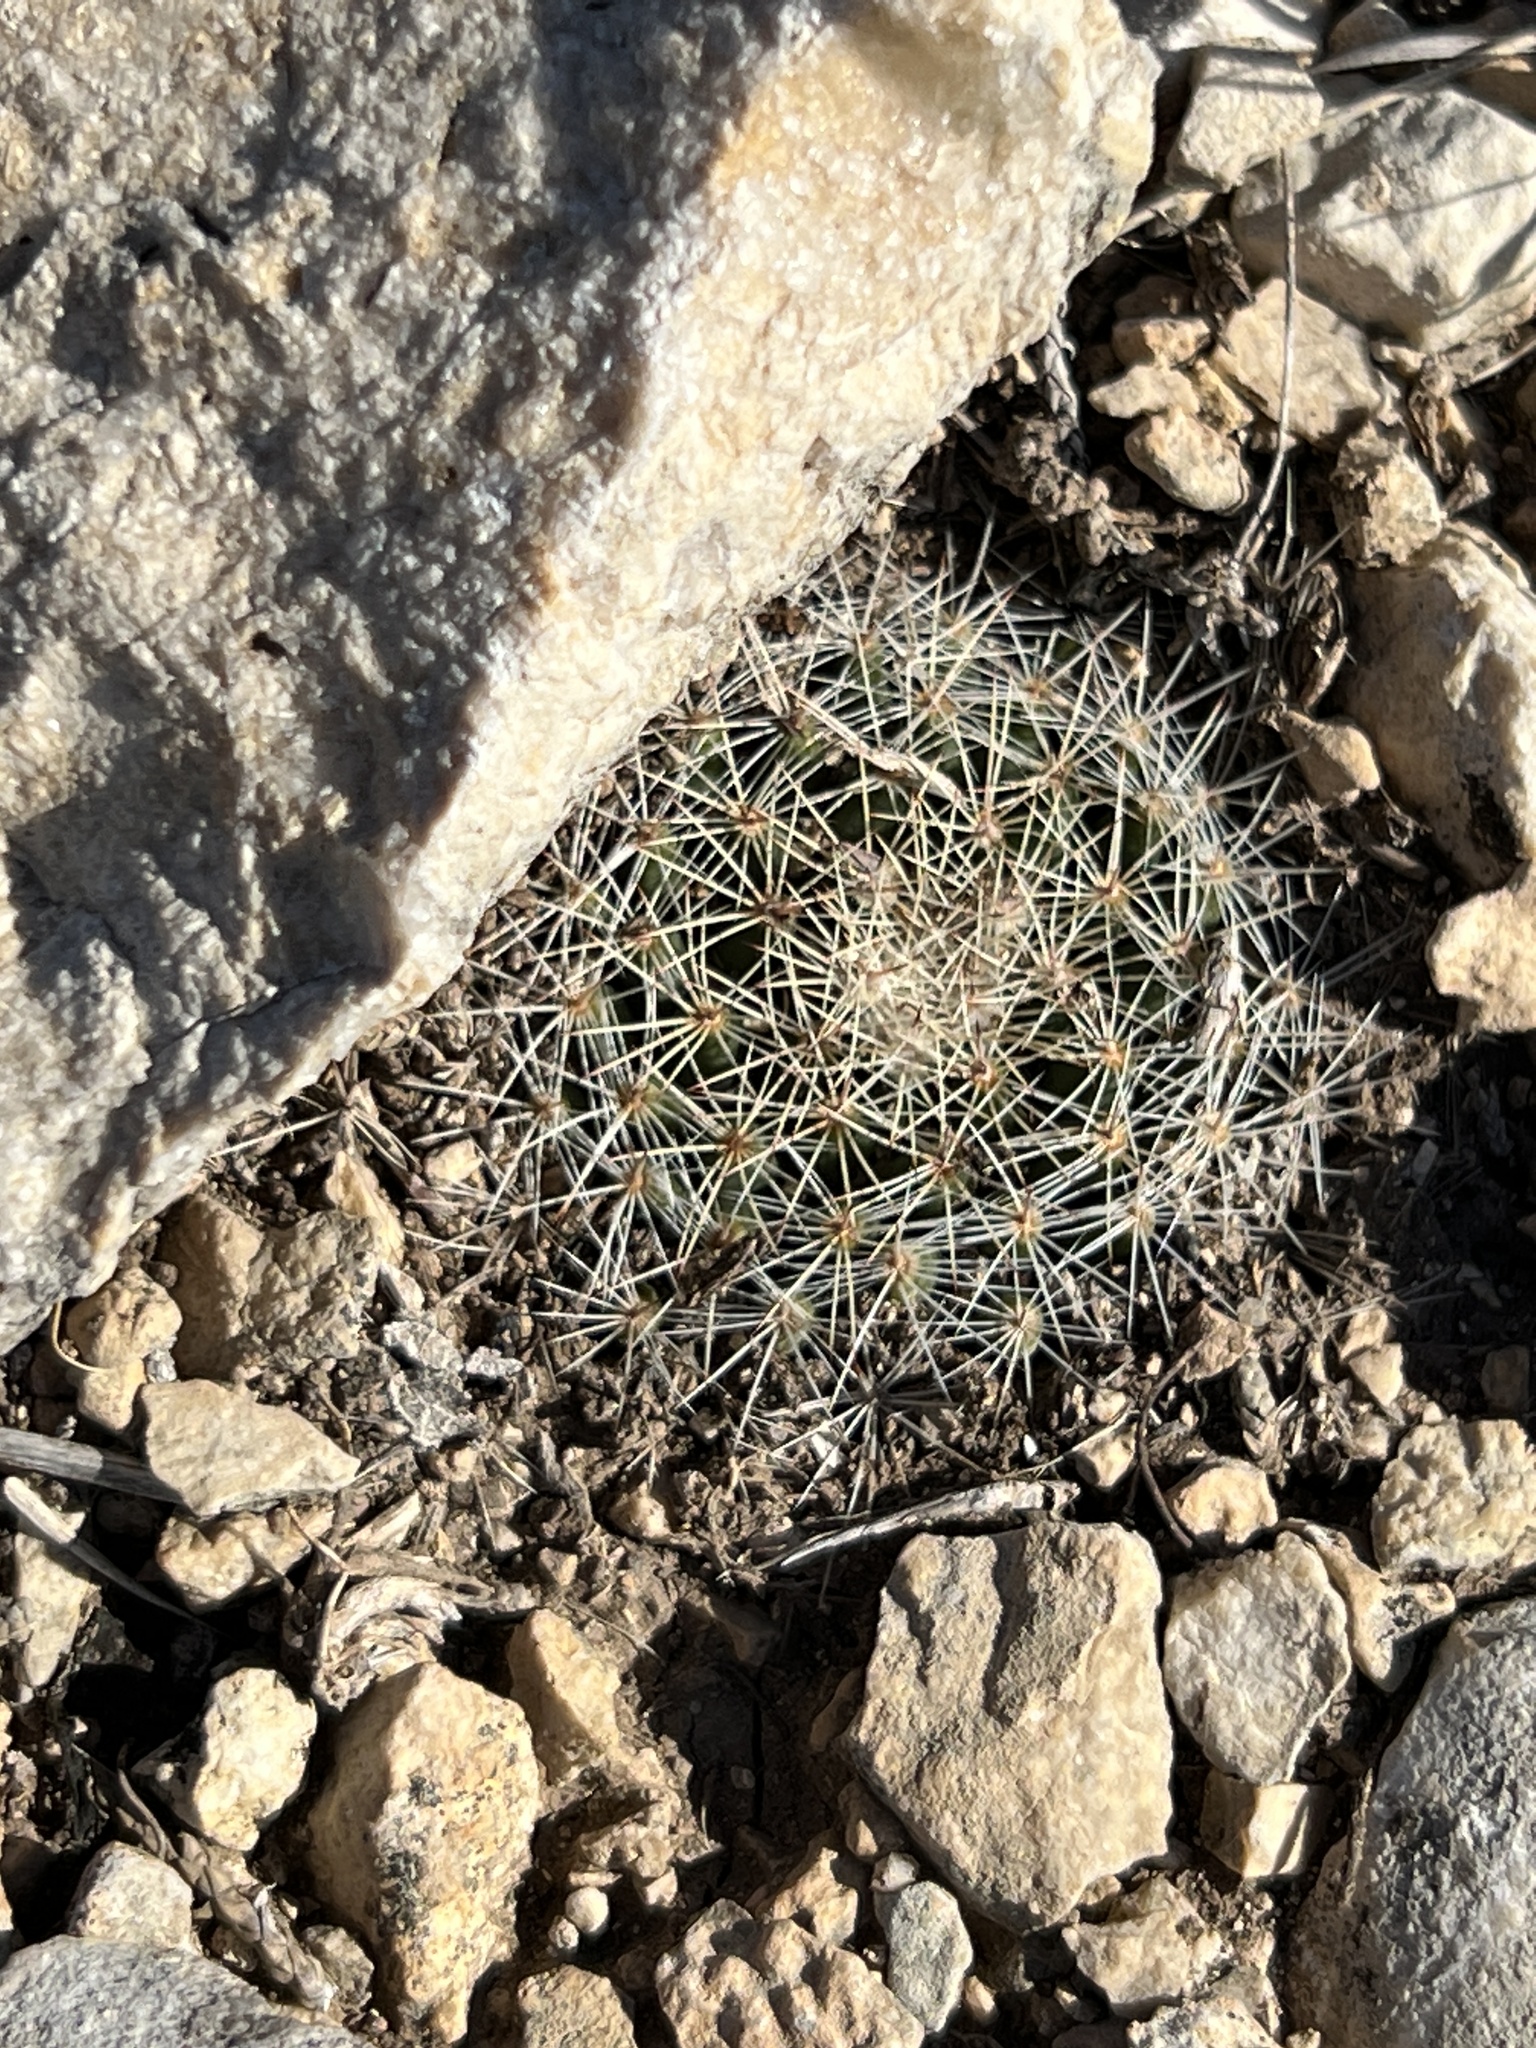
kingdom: Plantae
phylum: Tracheophyta
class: Magnoliopsida
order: Caryophyllales
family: Cactaceae
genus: Mammillaria
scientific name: Mammillaria heyderi
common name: Little nipple cactus
